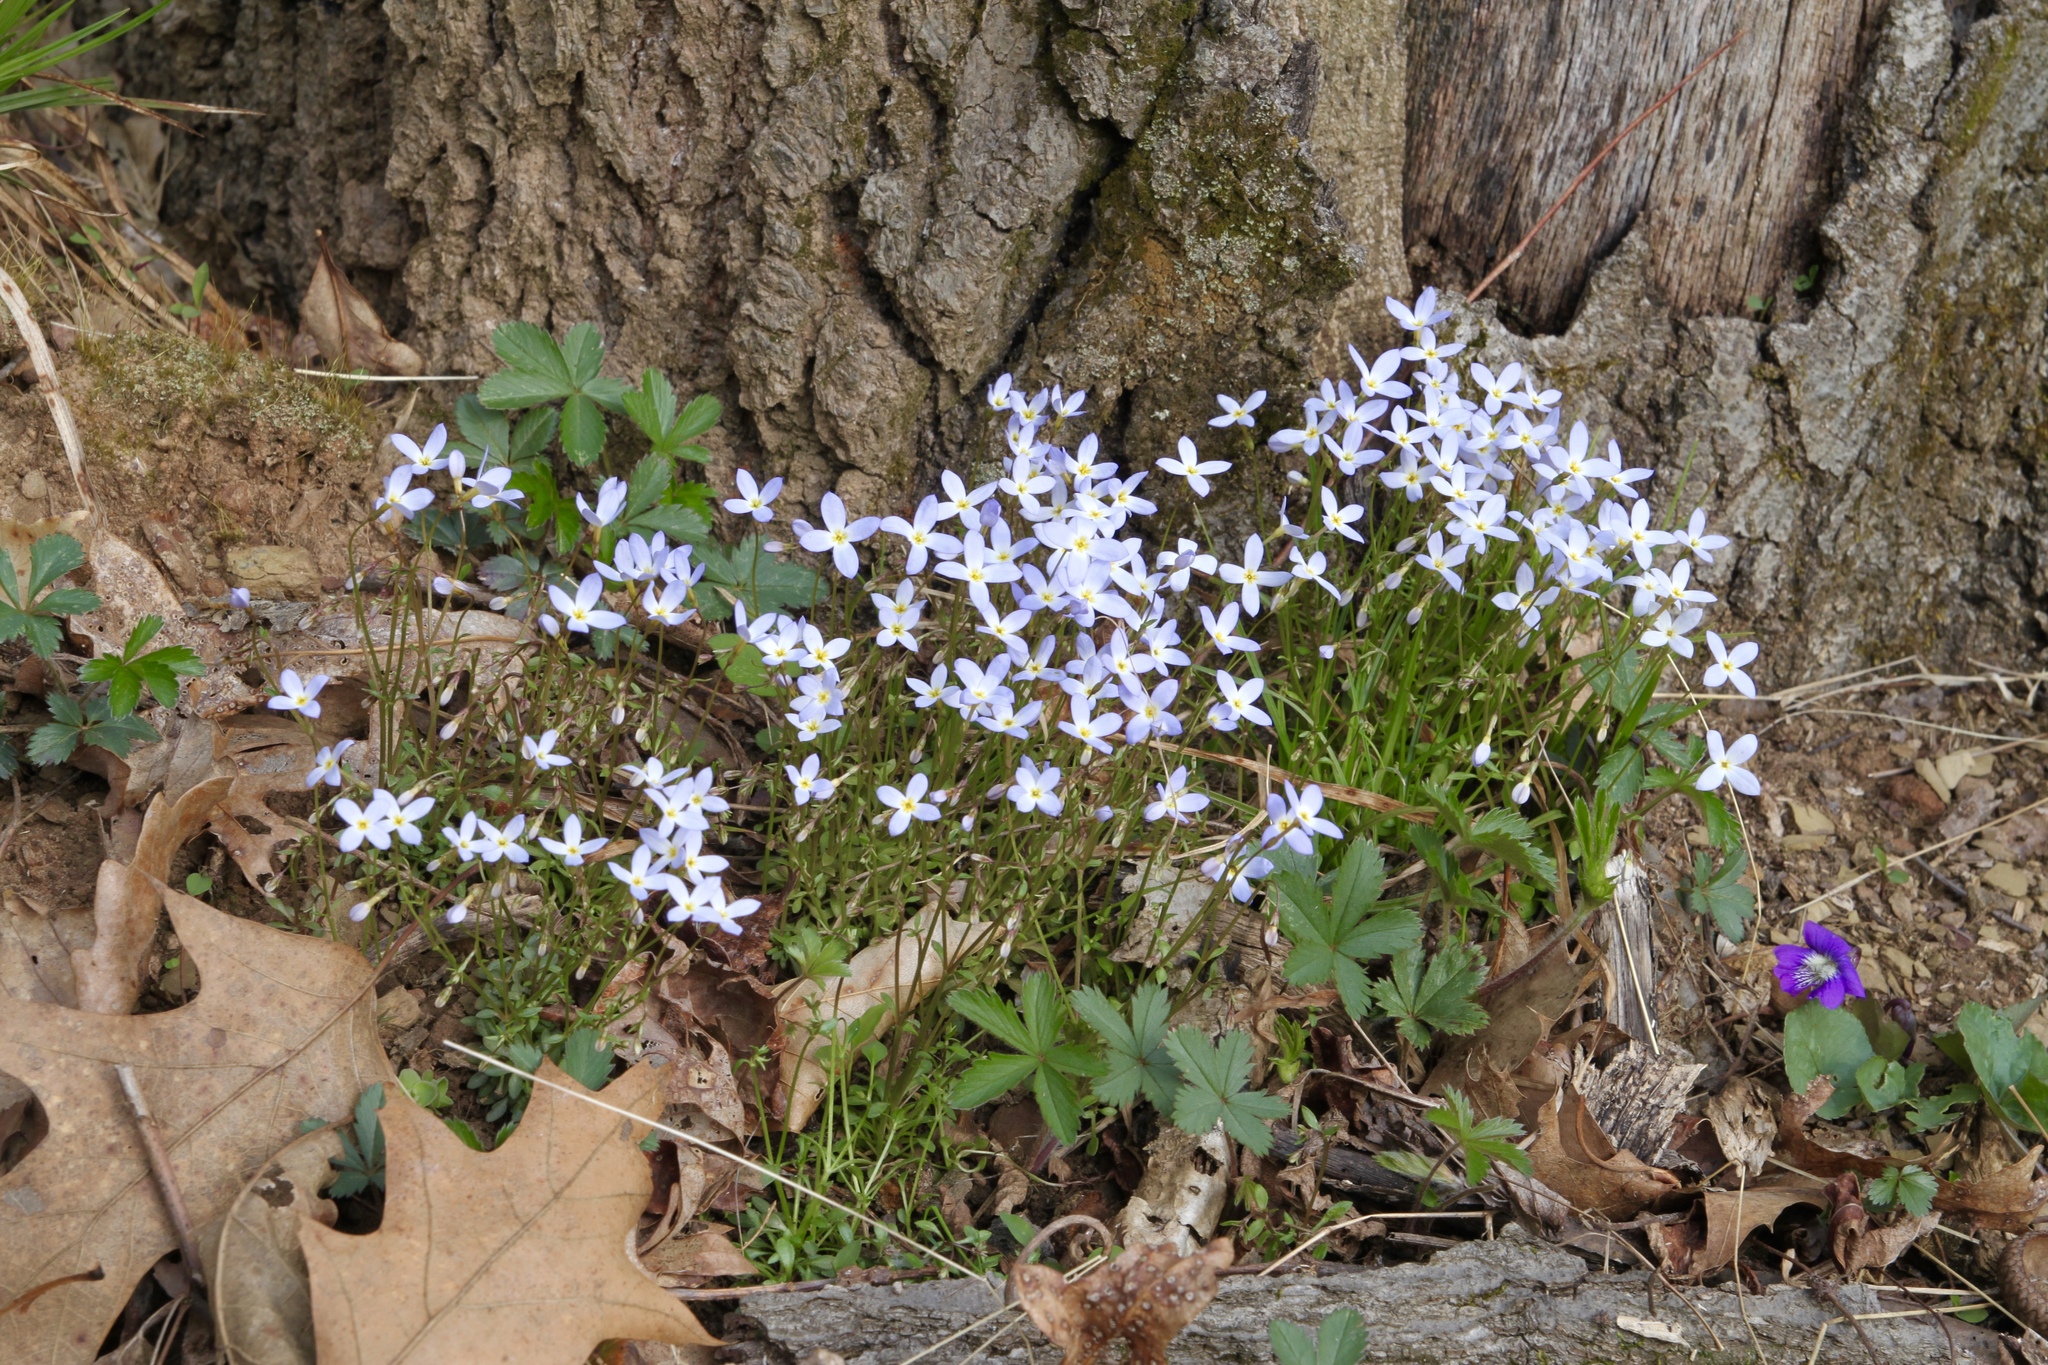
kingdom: Plantae
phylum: Tracheophyta
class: Magnoliopsida
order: Gentianales
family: Rubiaceae
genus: Houstonia
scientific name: Houstonia caerulea
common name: Bluets
